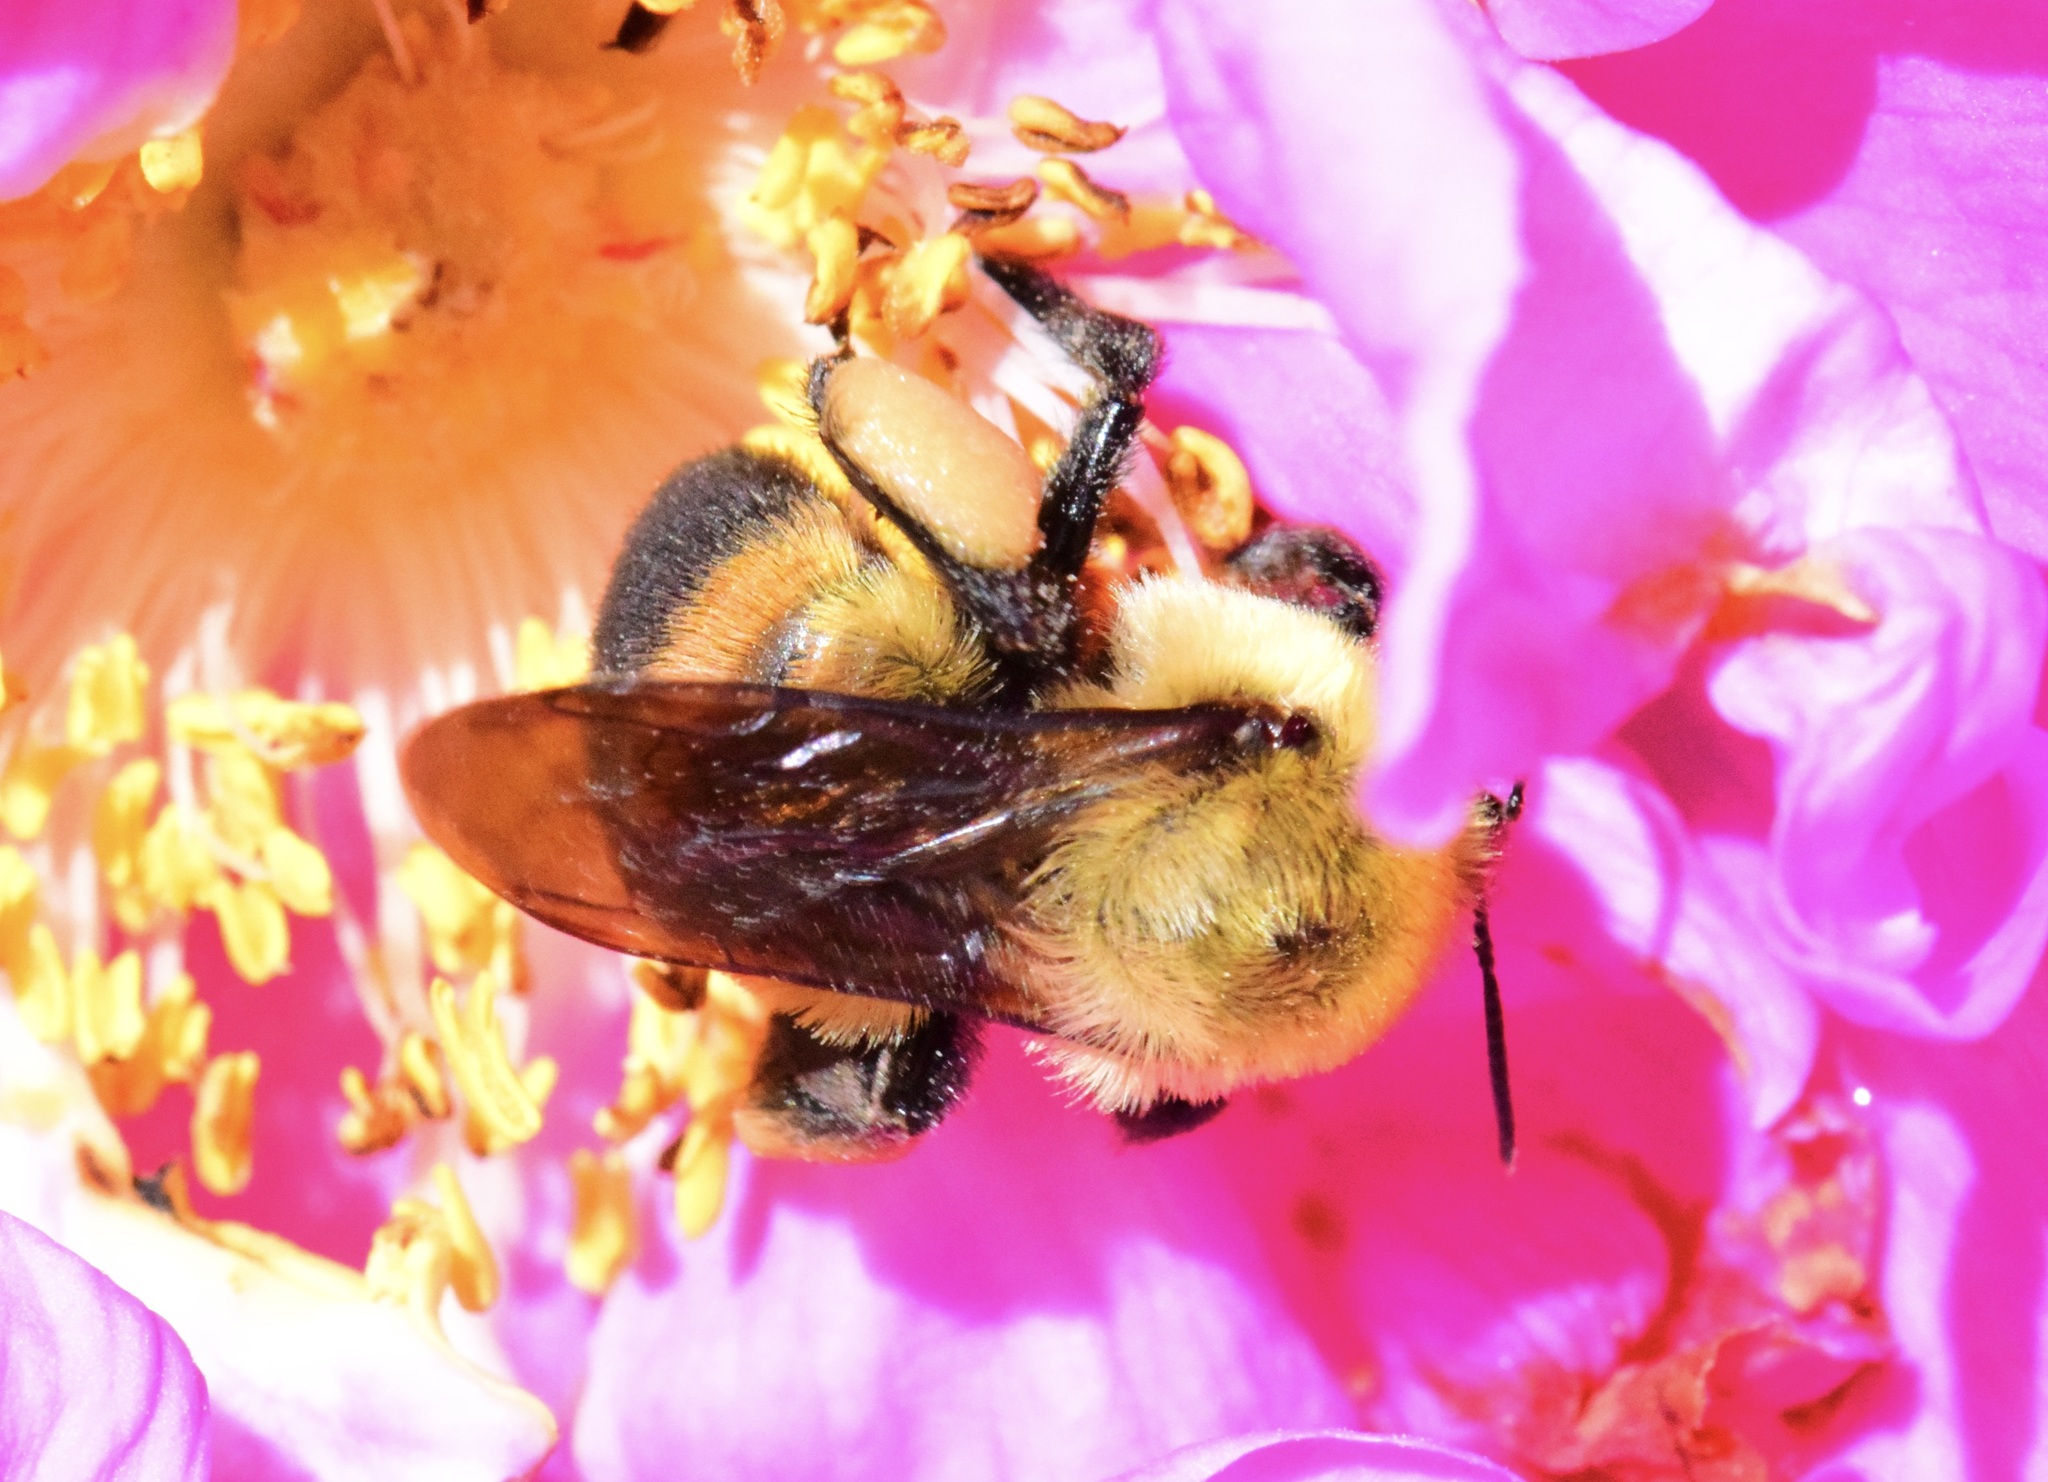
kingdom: Animalia
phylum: Arthropoda
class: Insecta
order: Hymenoptera
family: Apidae
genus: Bombus
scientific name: Bombus griseocollis
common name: Brown-belted bumble bee
